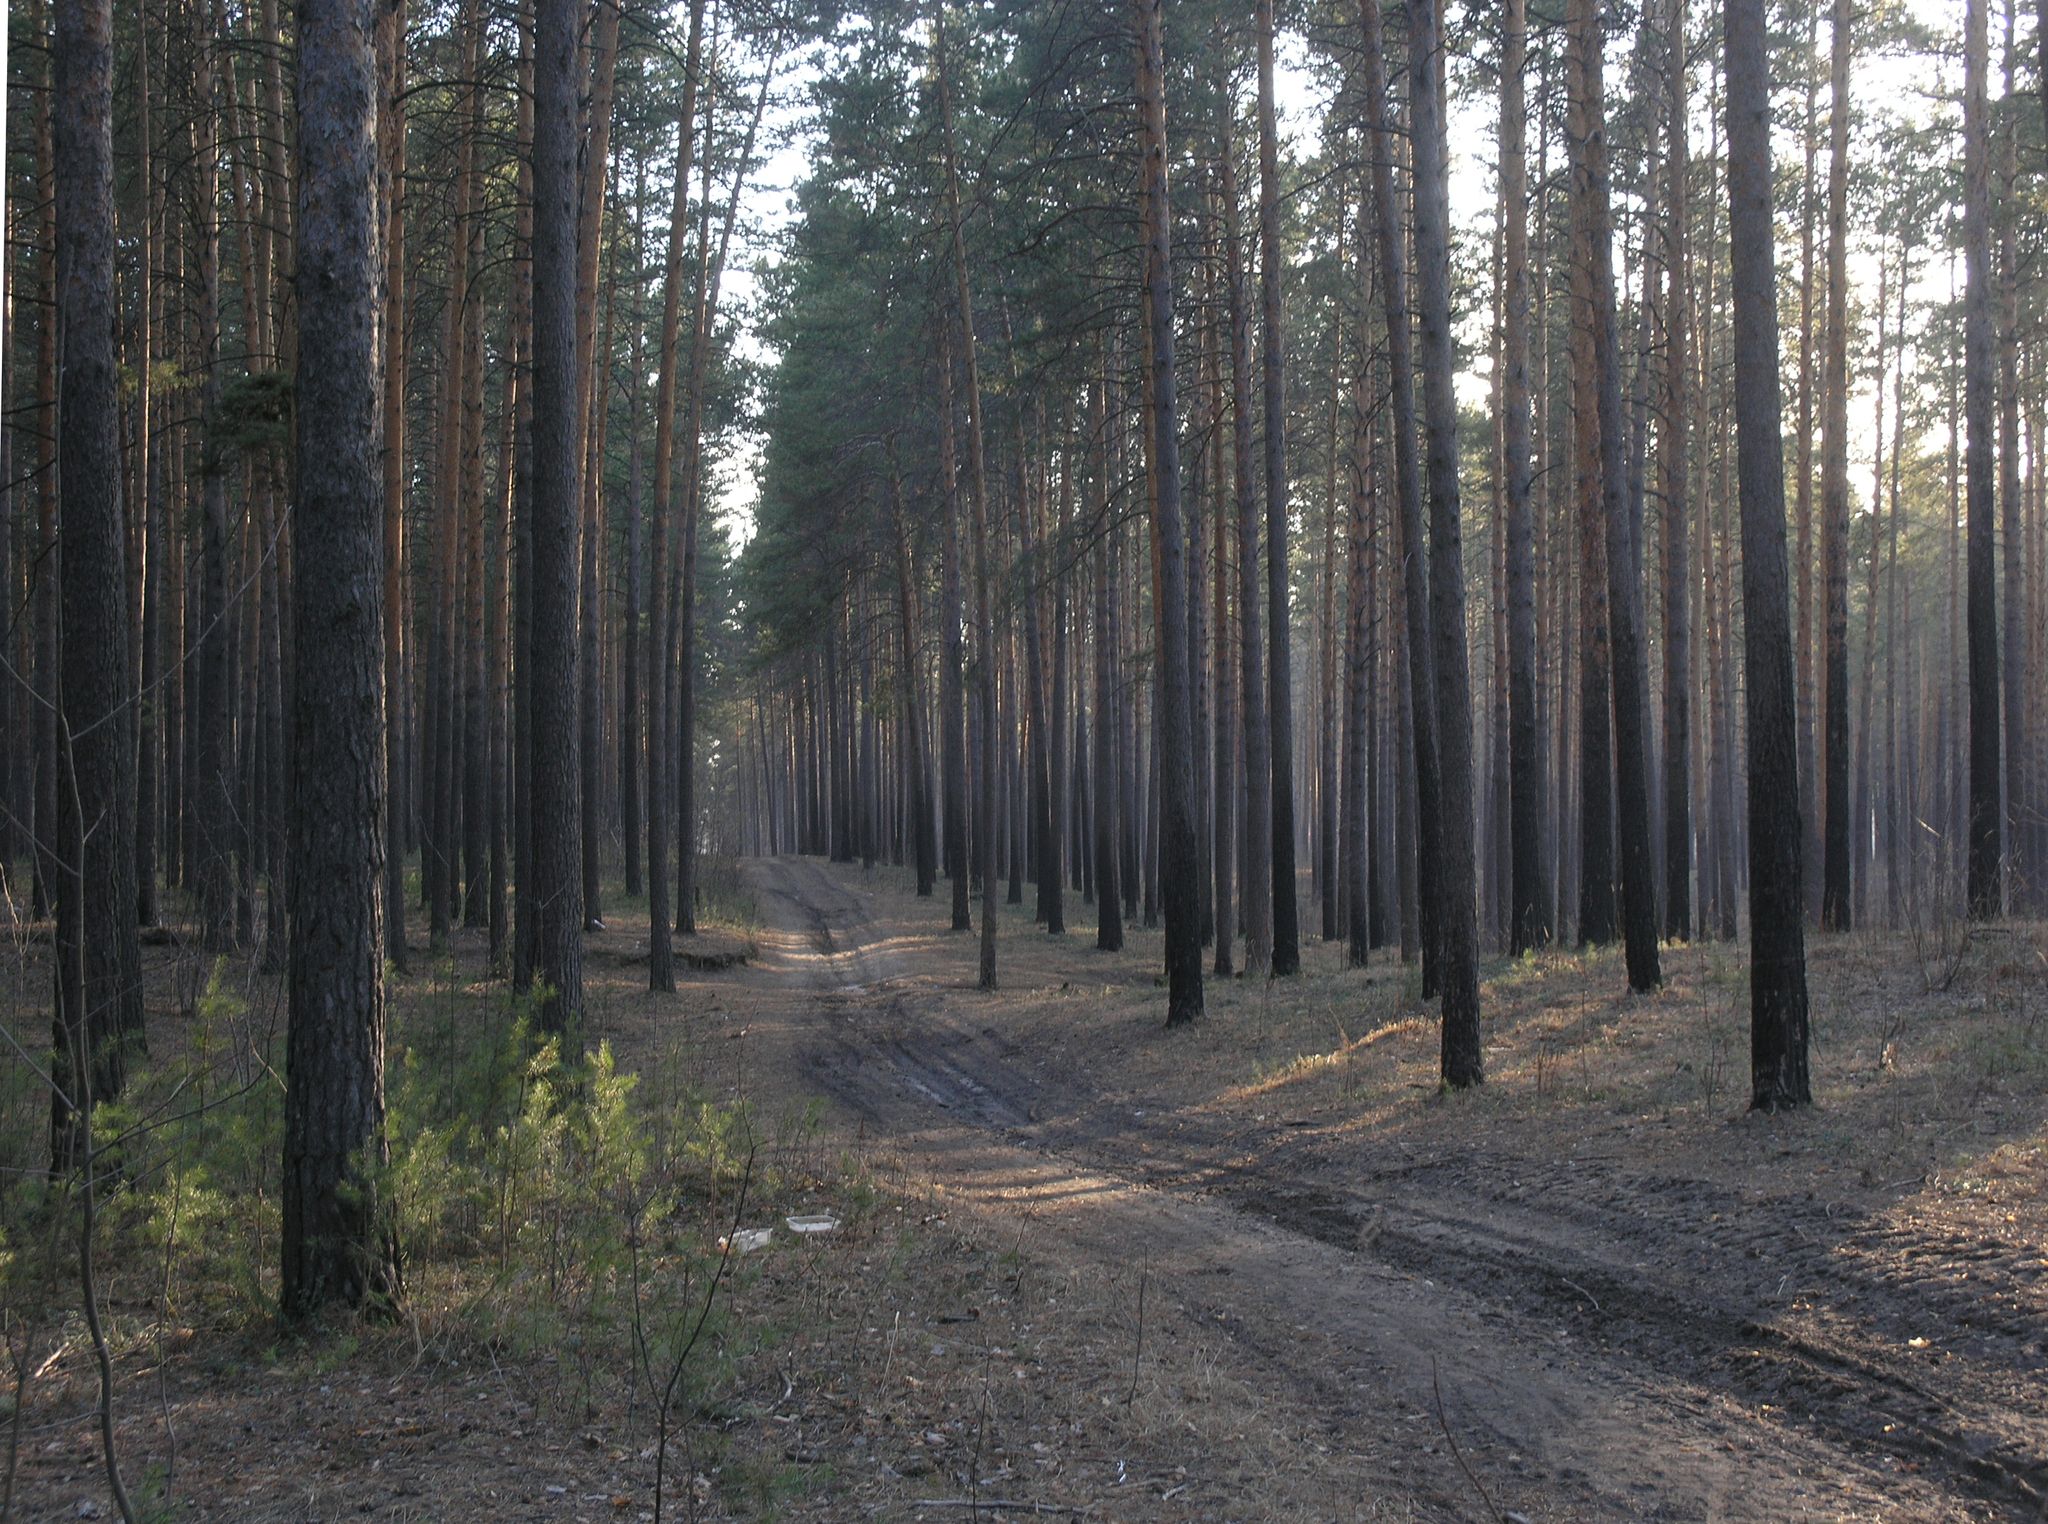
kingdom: Plantae
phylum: Tracheophyta
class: Pinopsida
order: Pinales
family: Pinaceae
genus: Pinus
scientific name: Pinus sylvestris
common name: Scots pine
